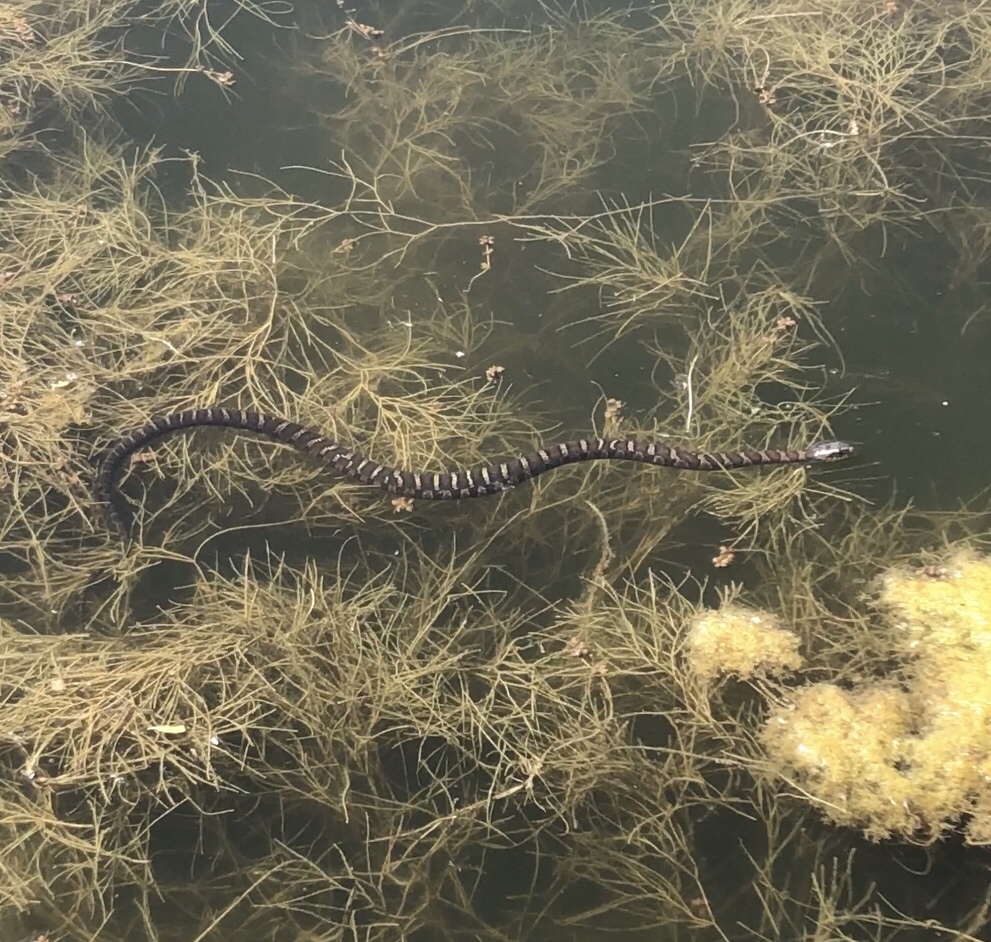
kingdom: Animalia
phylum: Chordata
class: Squamata
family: Colubridae
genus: Nerodia
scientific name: Nerodia sipedon
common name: Northern water snake
